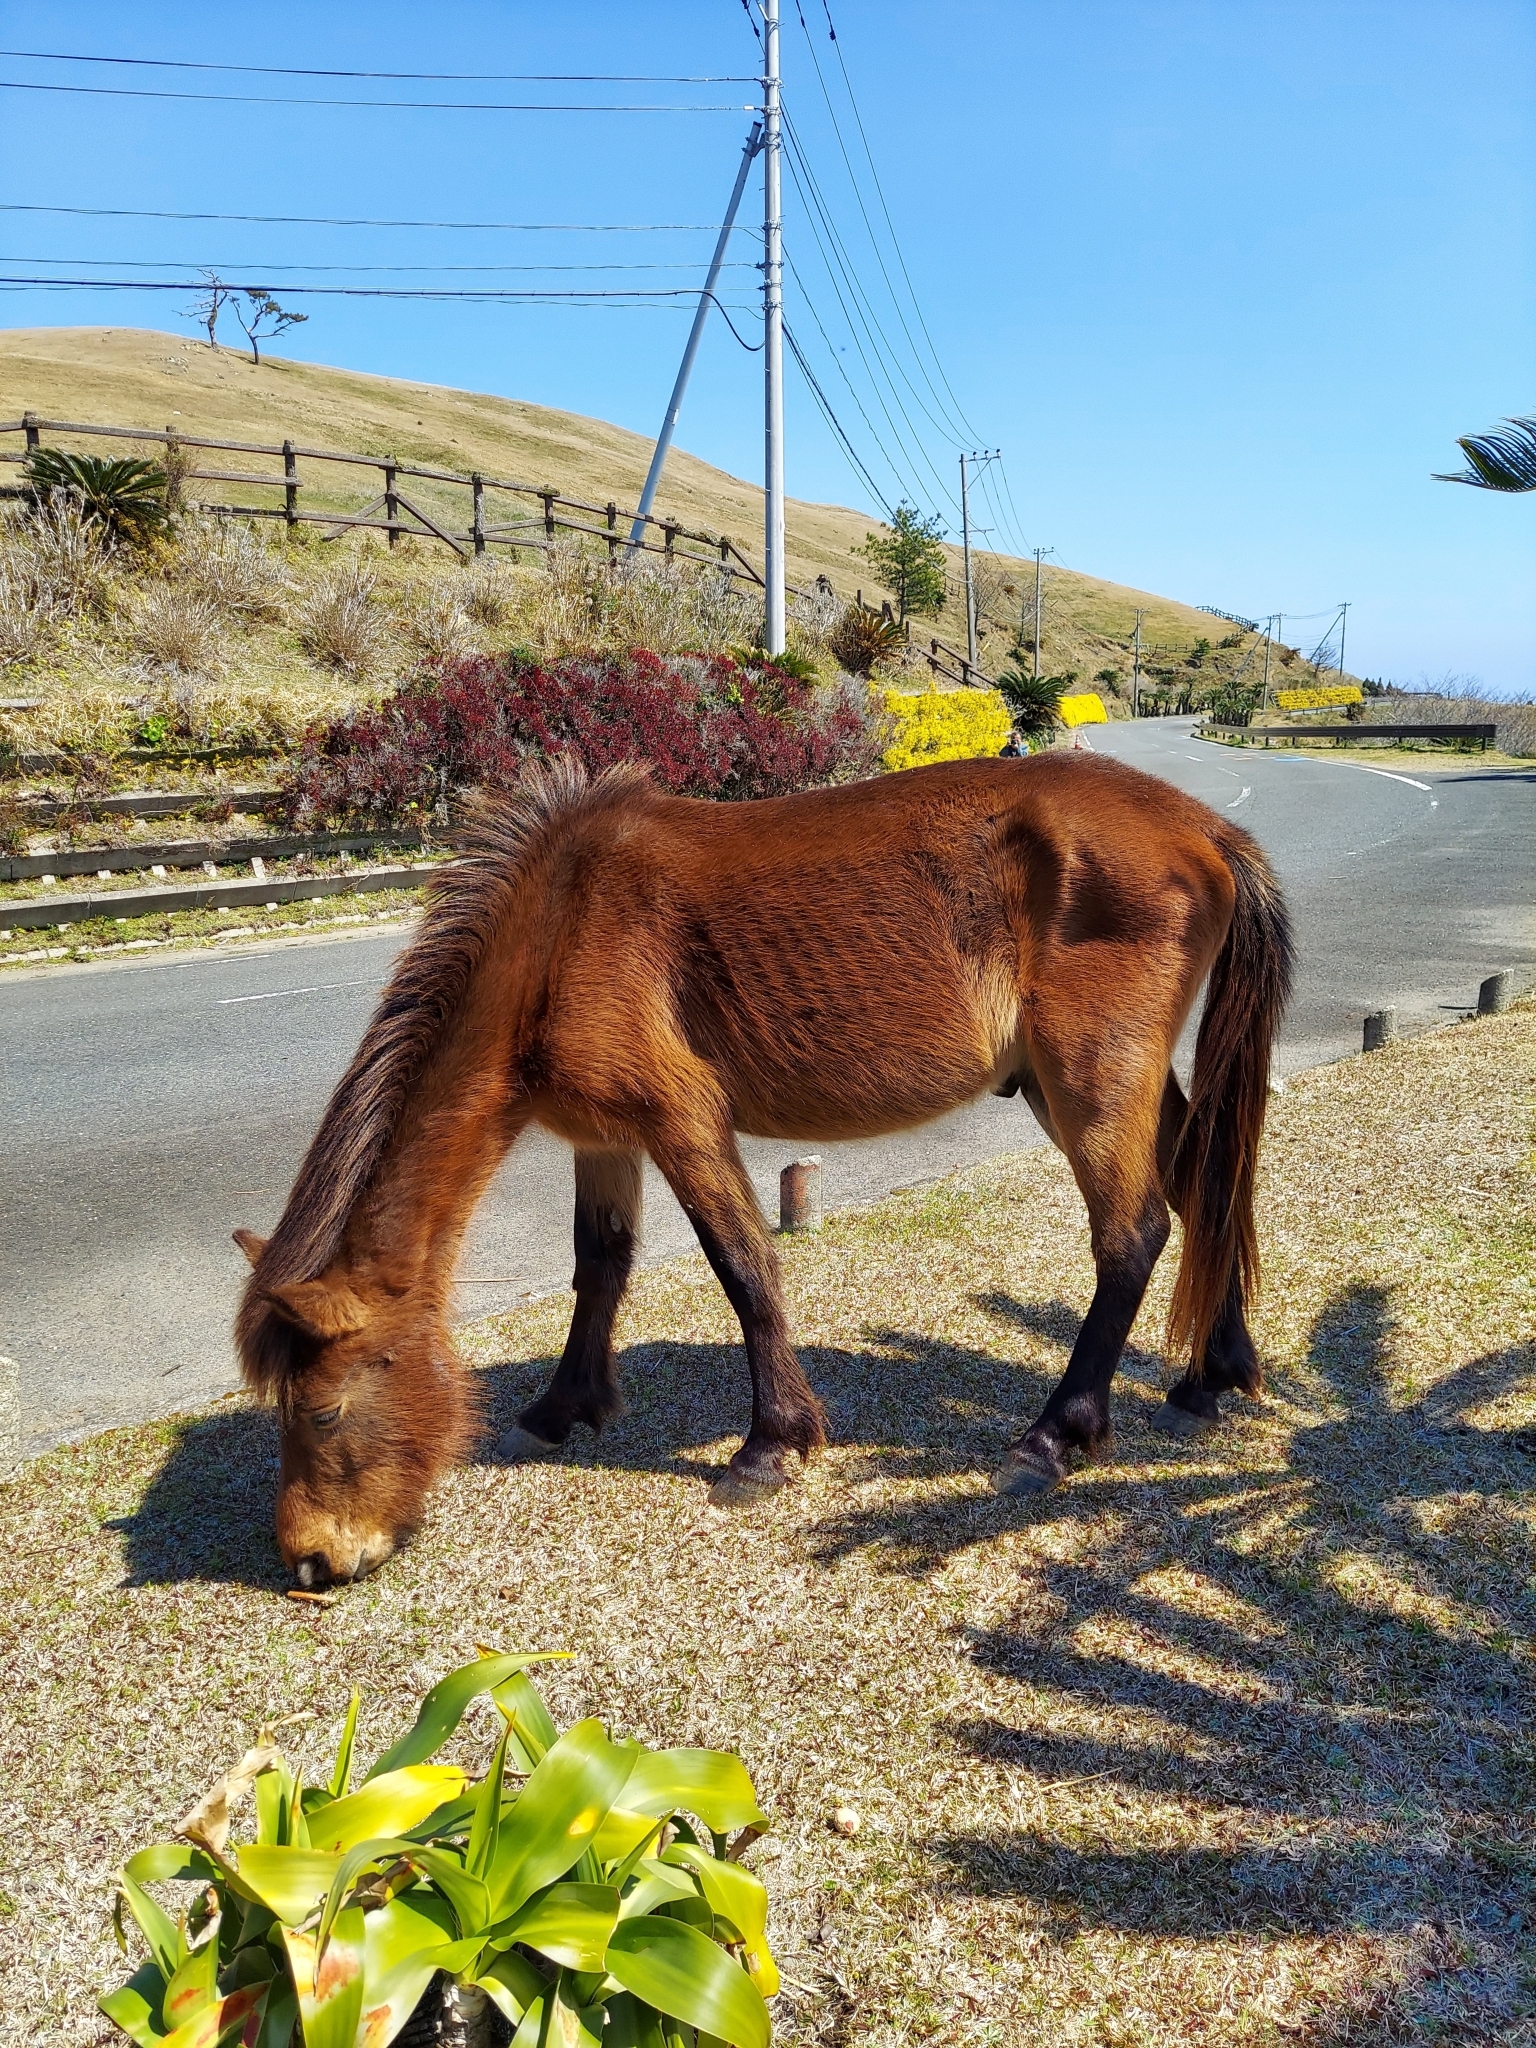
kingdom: Animalia
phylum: Chordata
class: Mammalia
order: Perissodactyla
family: Equidae
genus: Equus
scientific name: Equus caballus
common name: Horse
